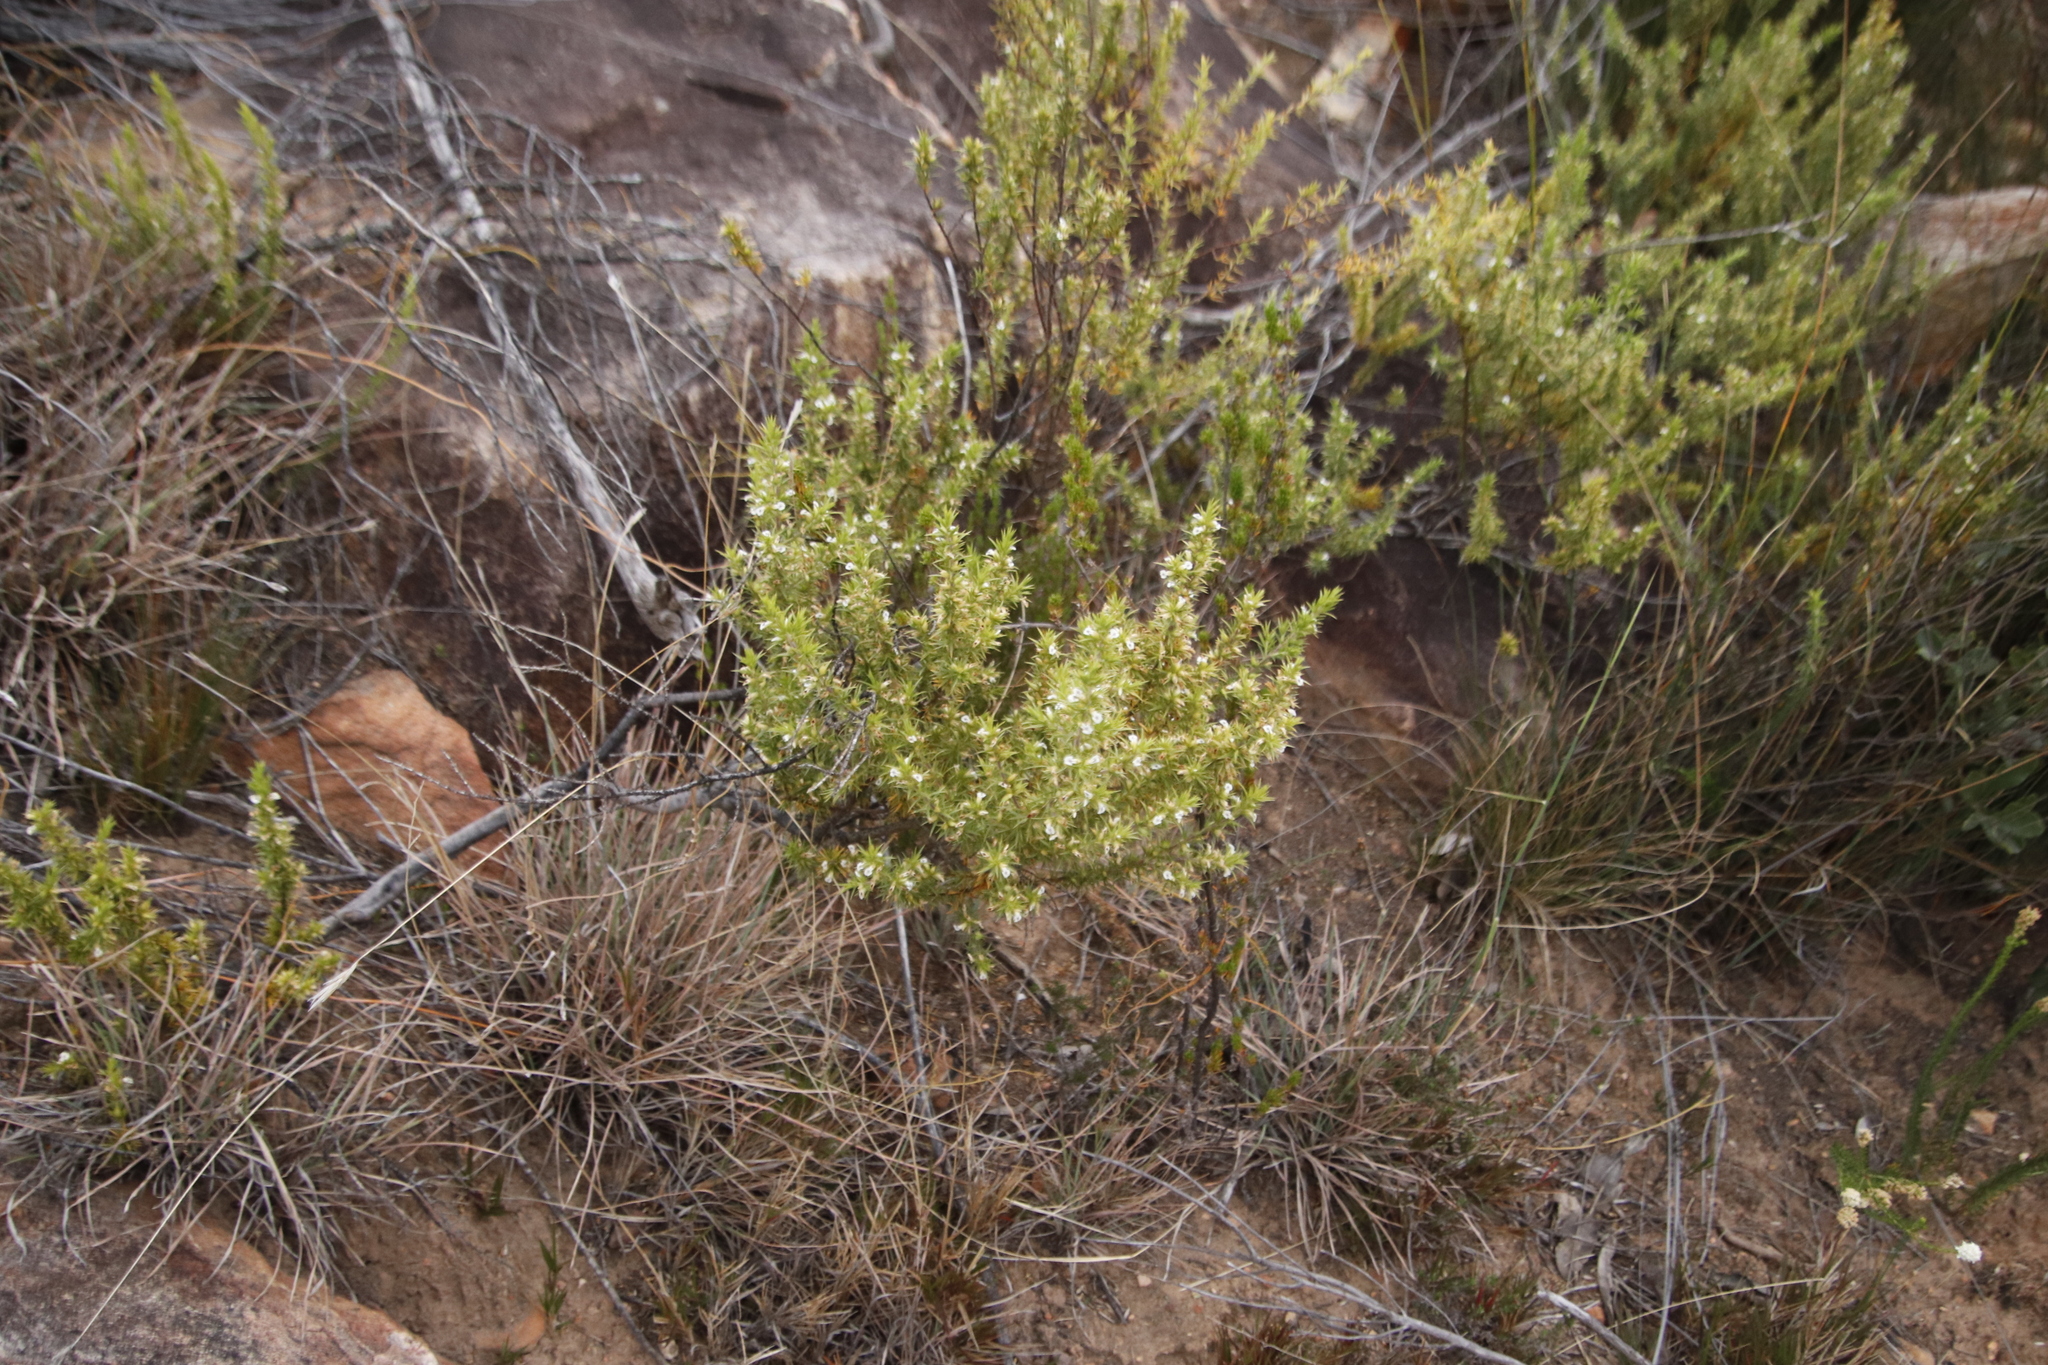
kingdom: Plantae
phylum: Tracheophyta
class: Magnoliopsida
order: Fabales
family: Polygalaceae
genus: Muraltia
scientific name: Muraltia ericifolia
